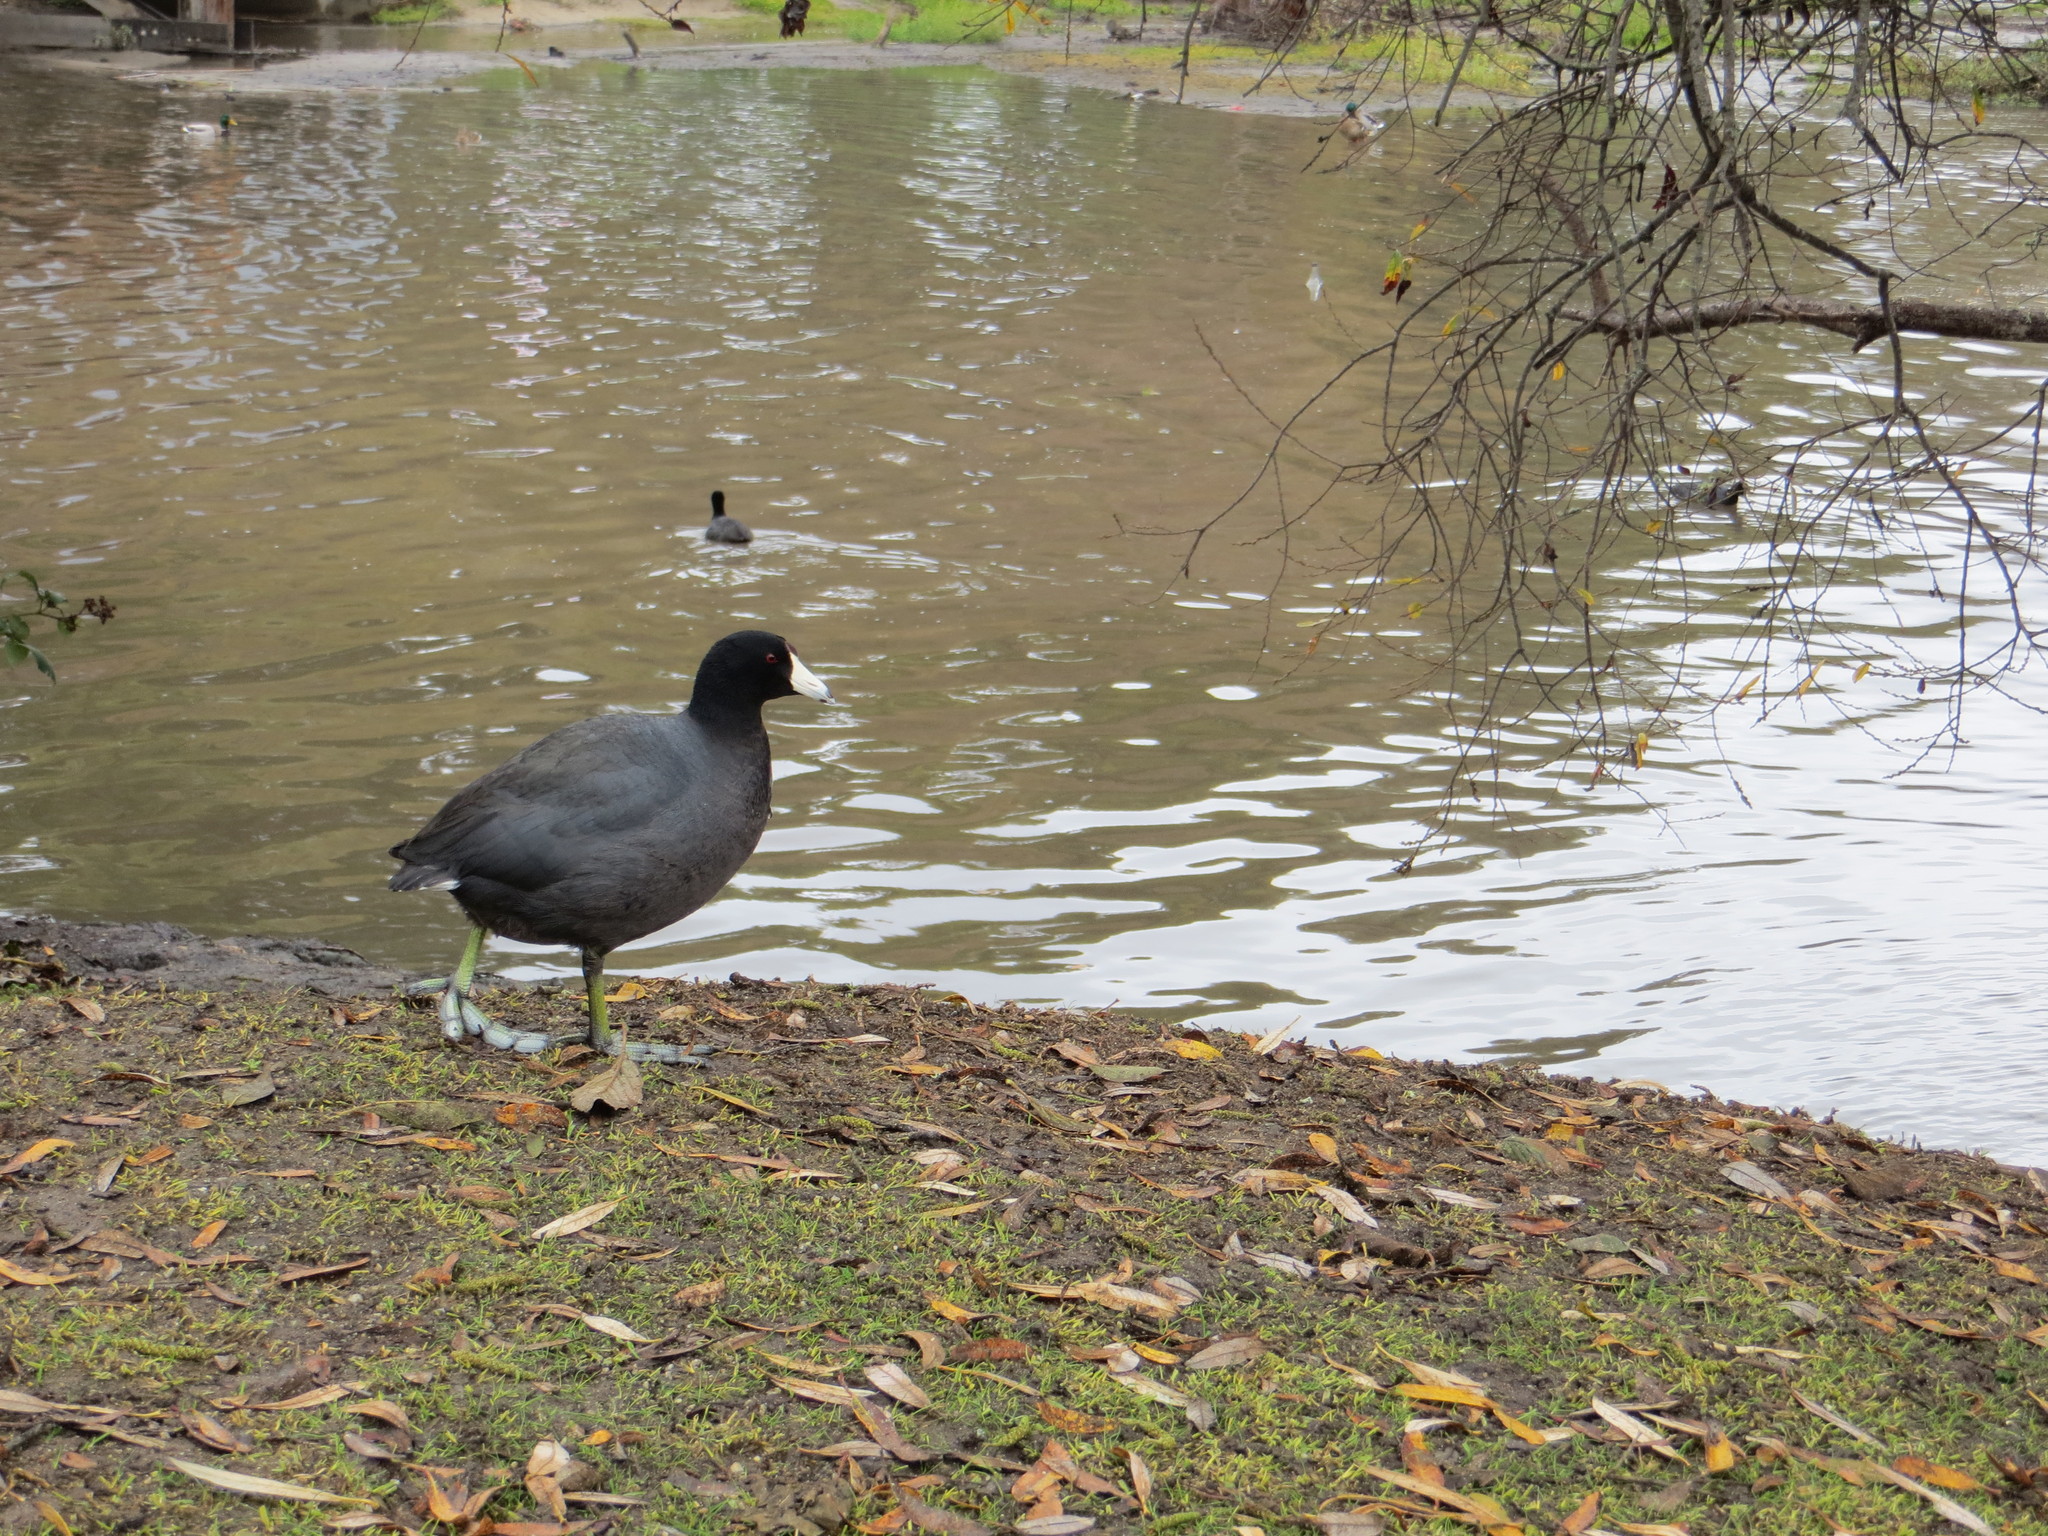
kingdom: Animalia
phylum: Chordata
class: Aves
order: Gruiformes
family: Rallidae
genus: Fulica
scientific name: Fulica americana
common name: American coot
